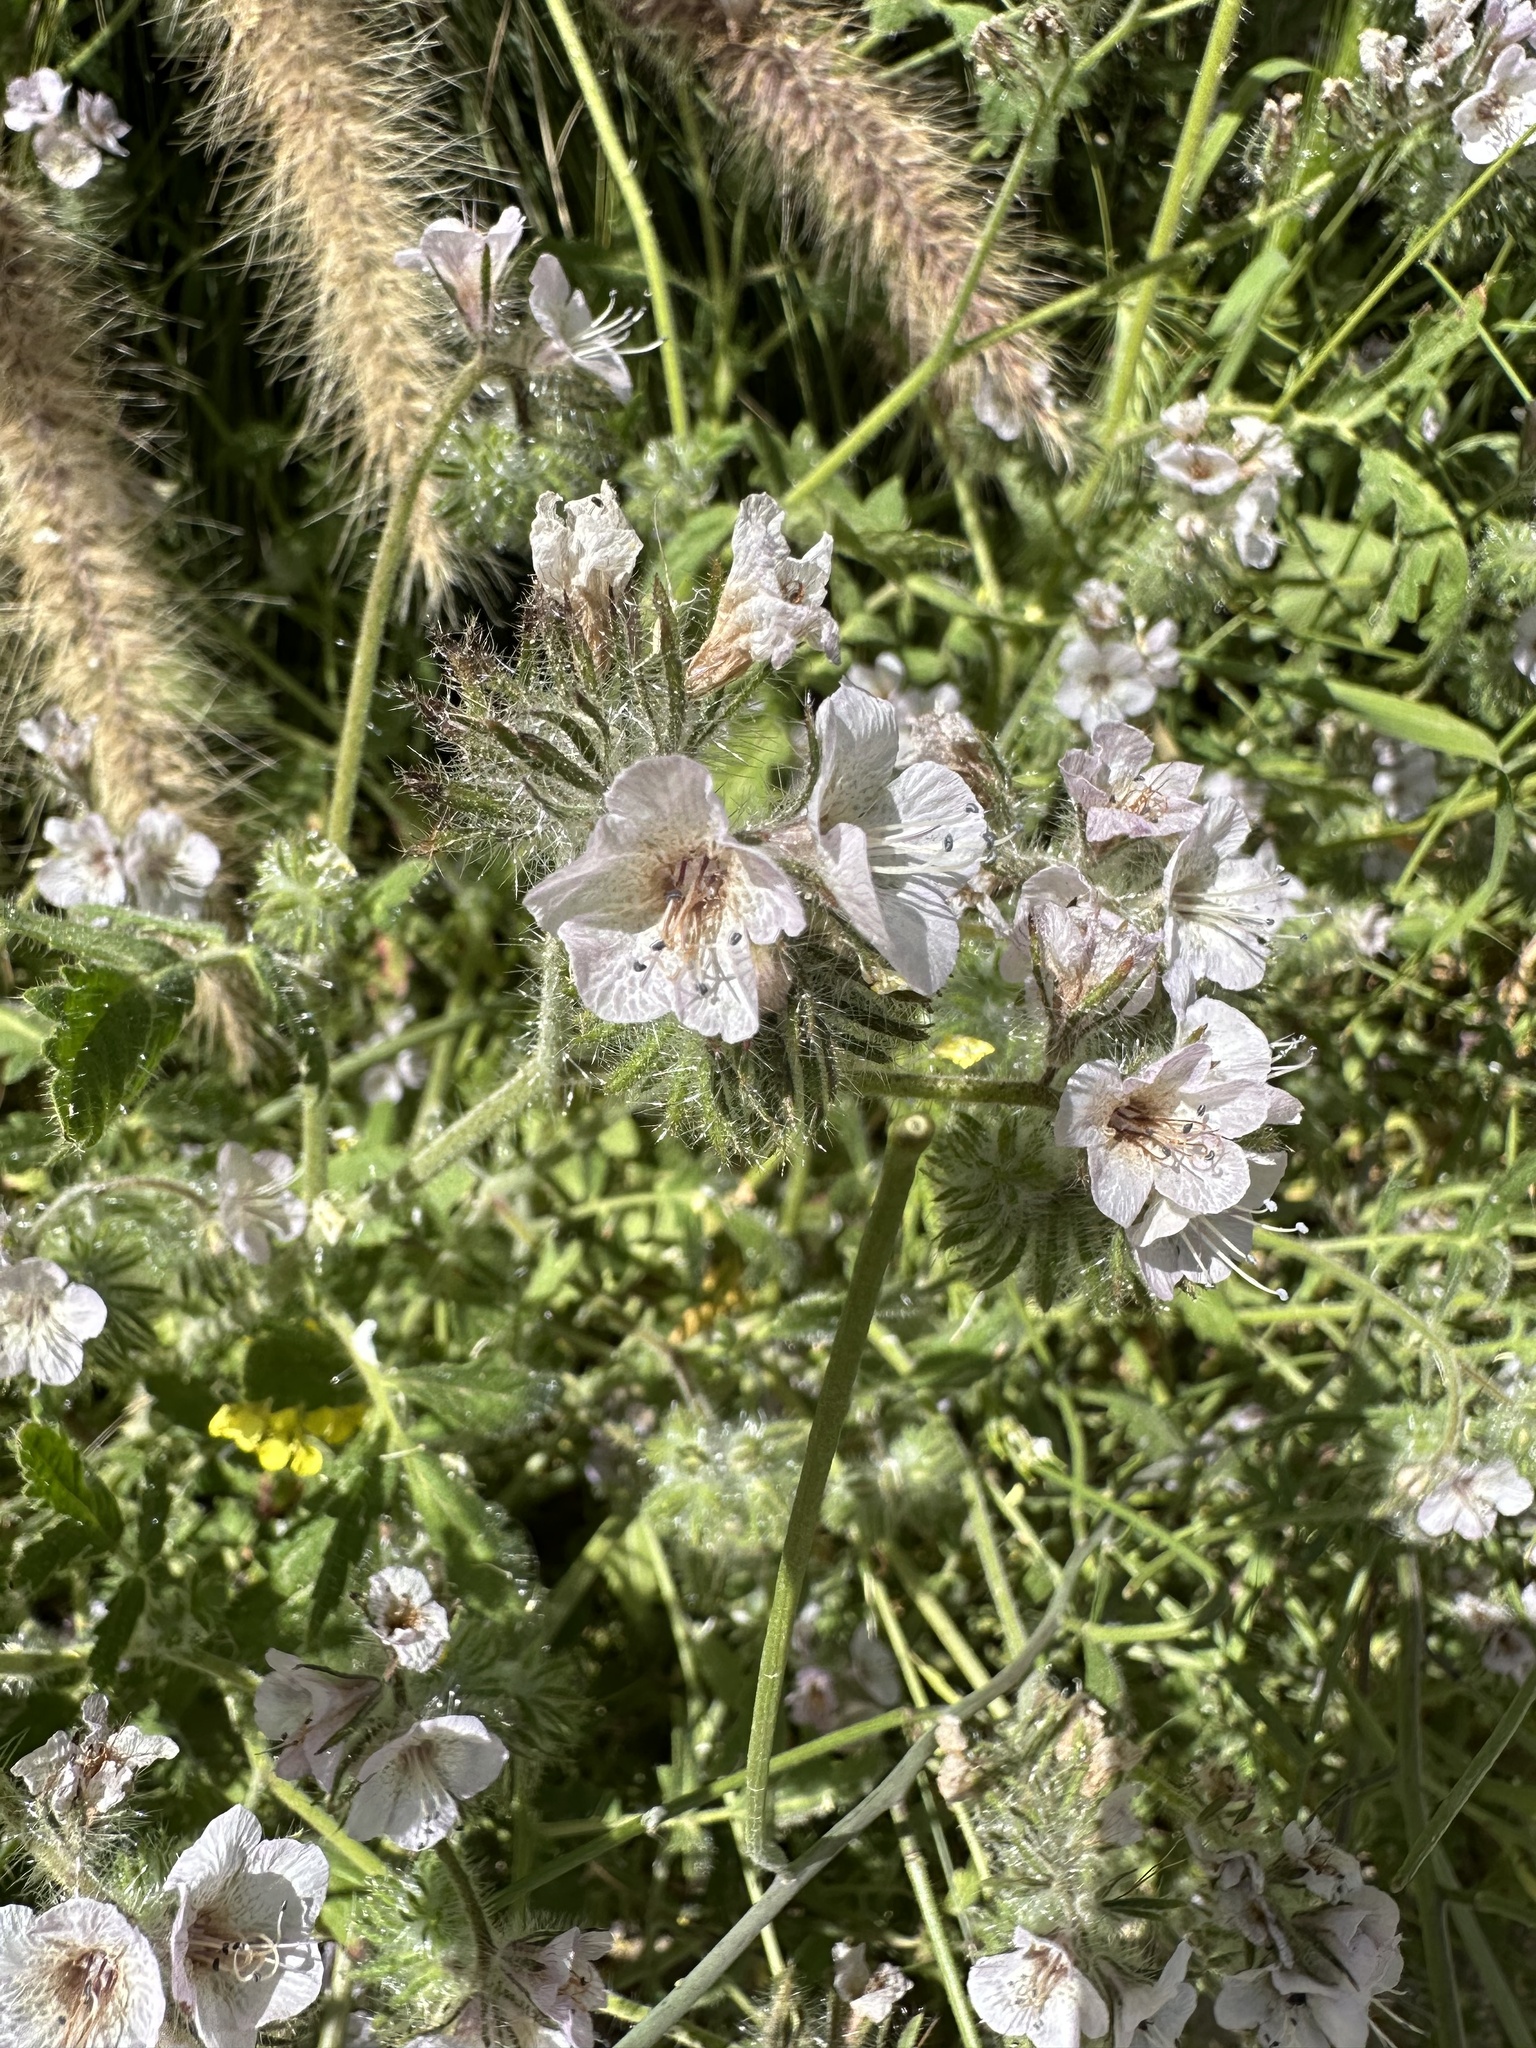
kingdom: Plantae
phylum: Tracheophyta
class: Magnoliopsida
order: Boraginales
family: Hydrophyllaceae
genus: Phacelia
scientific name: Phacelia cicutaria
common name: Caterpillar phacelia
